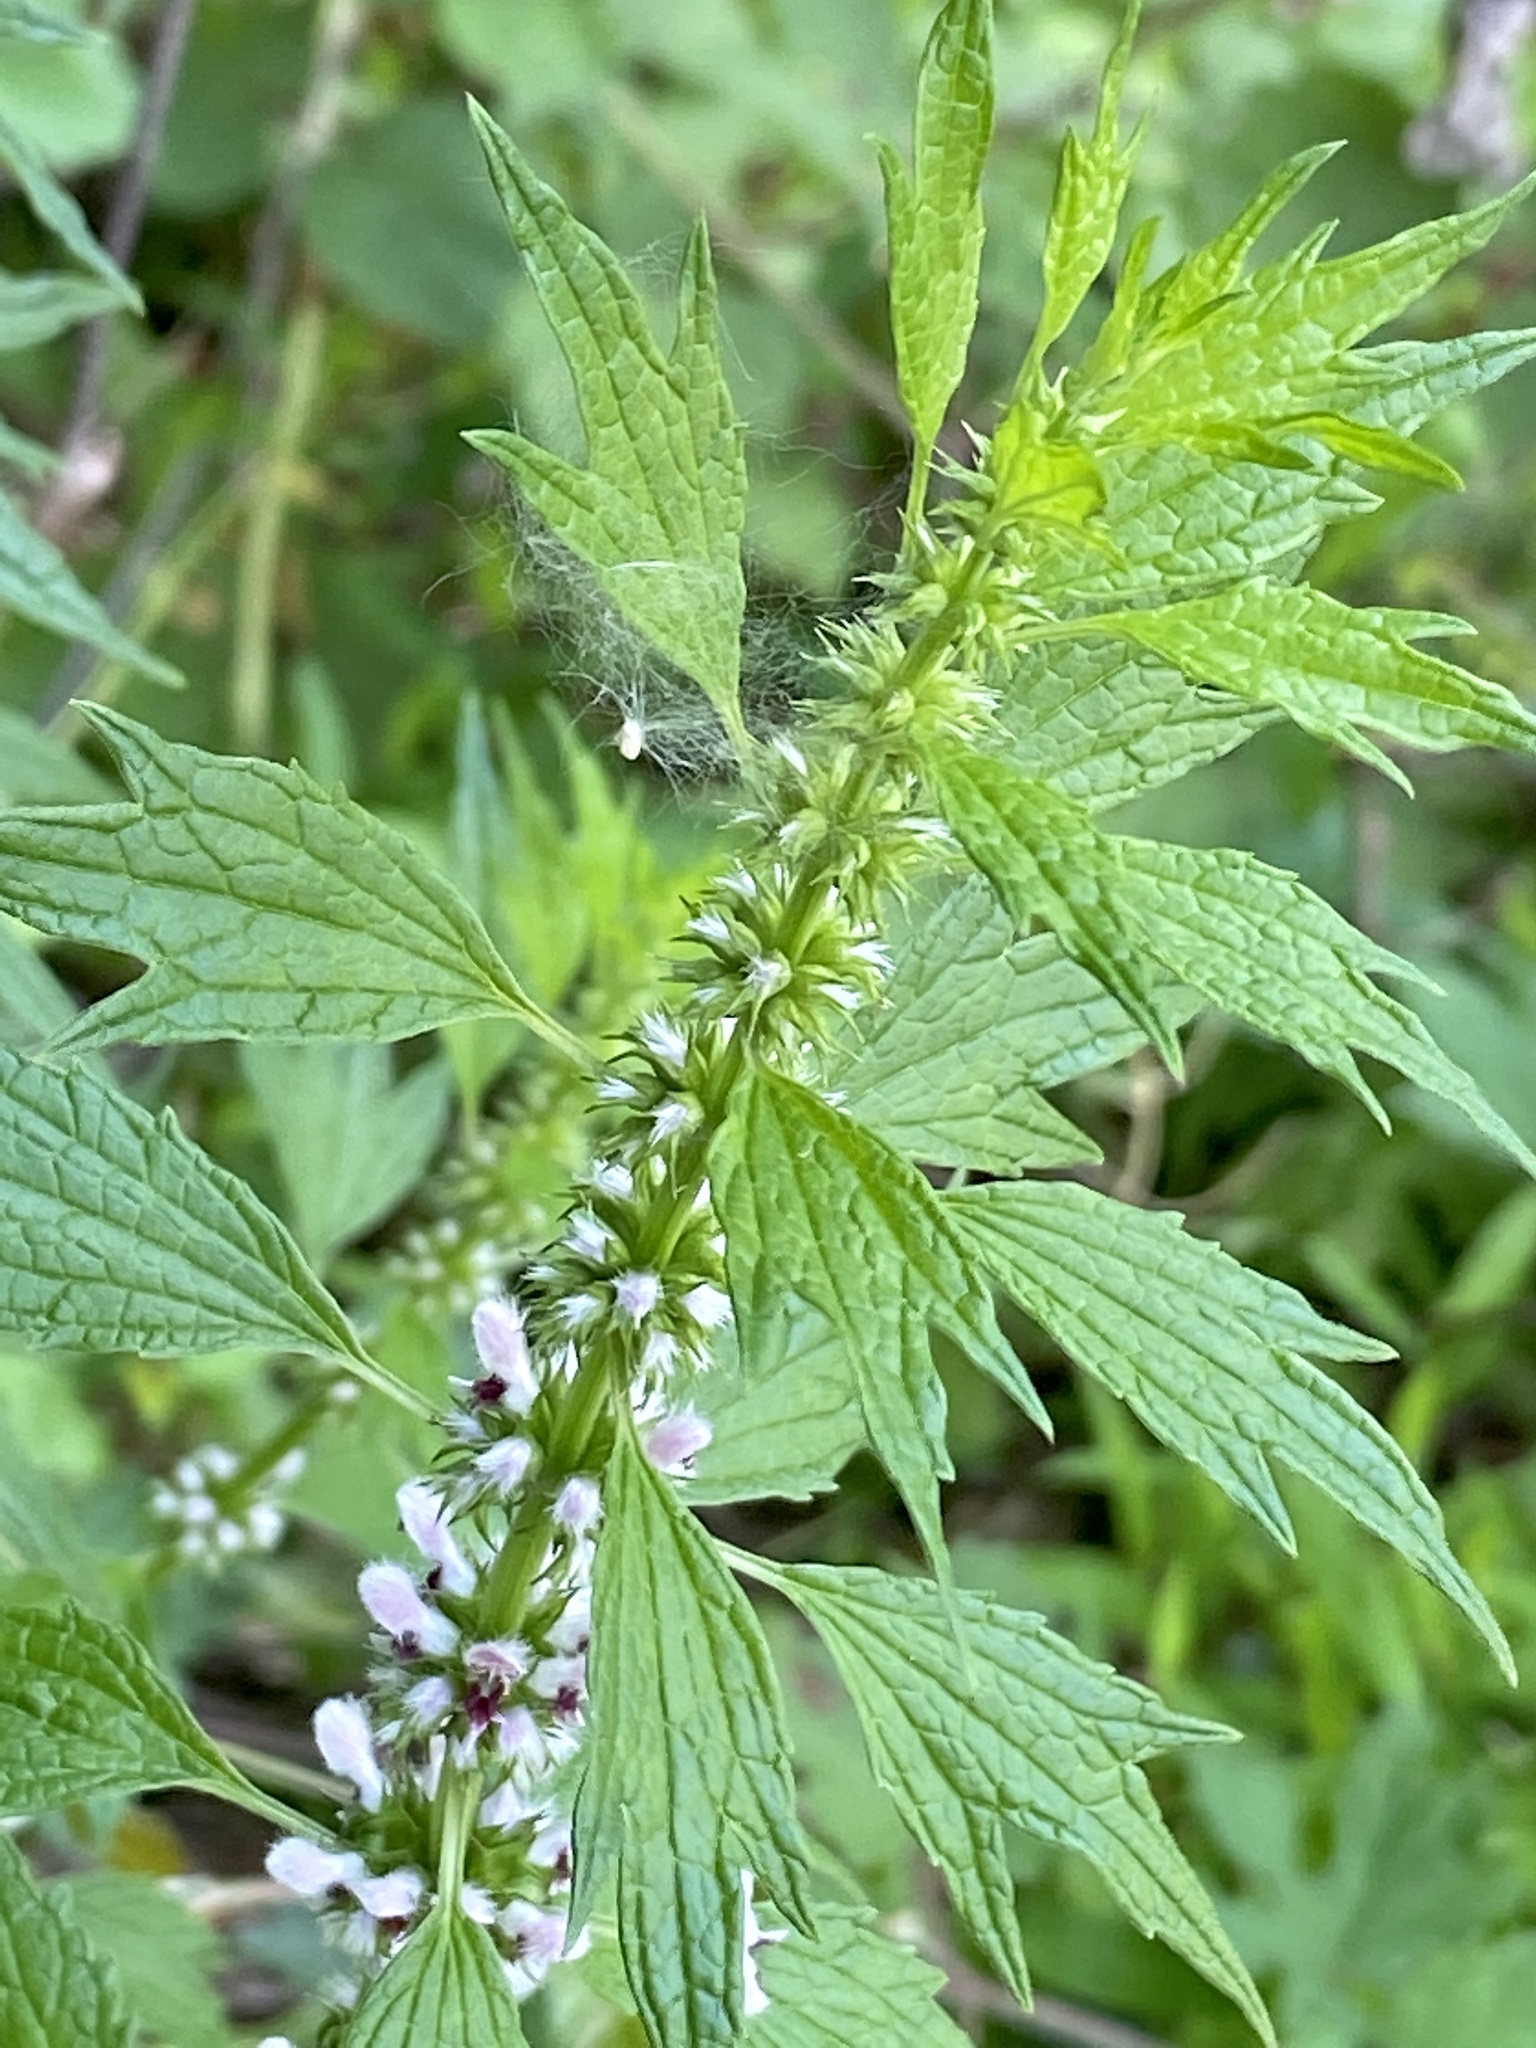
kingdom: Plantae
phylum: Tracheophyta
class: Magnoliopsida
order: Lamiales
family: Lamiaceae
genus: Leonurus
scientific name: Leonurus cardiaca
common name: Motherwort
